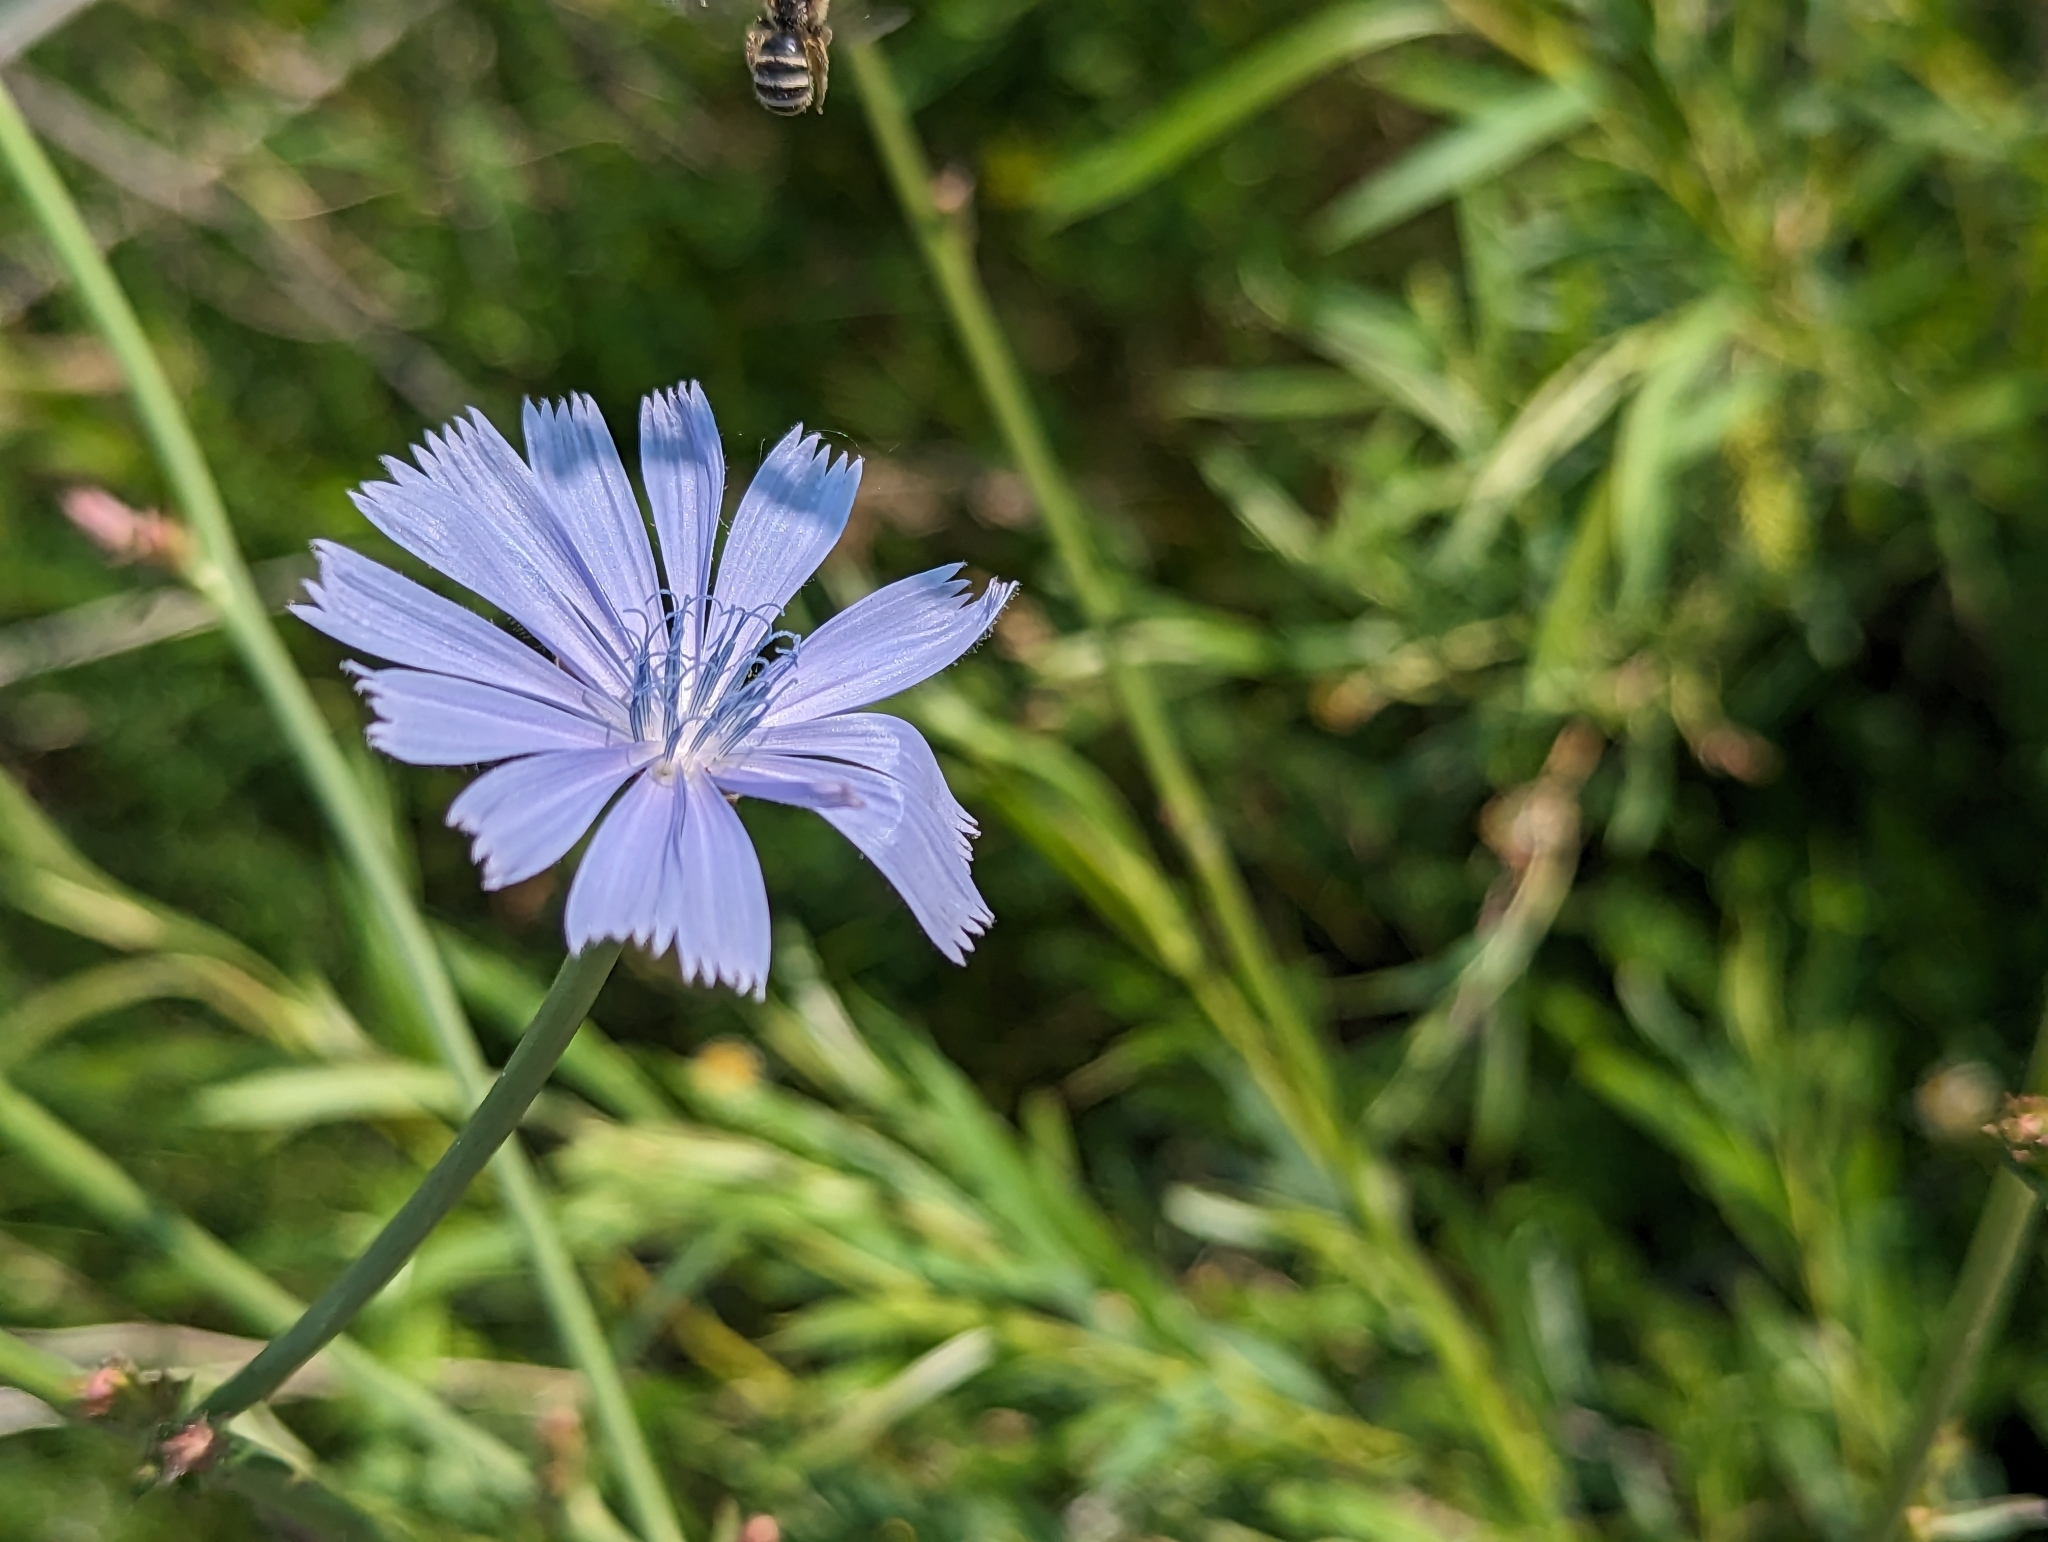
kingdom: Plantae
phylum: Tracheophyta
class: Magnoliopsida
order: Asterales
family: Asteraceae
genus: Cichorium
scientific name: Cichorium intybus
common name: Chicory
